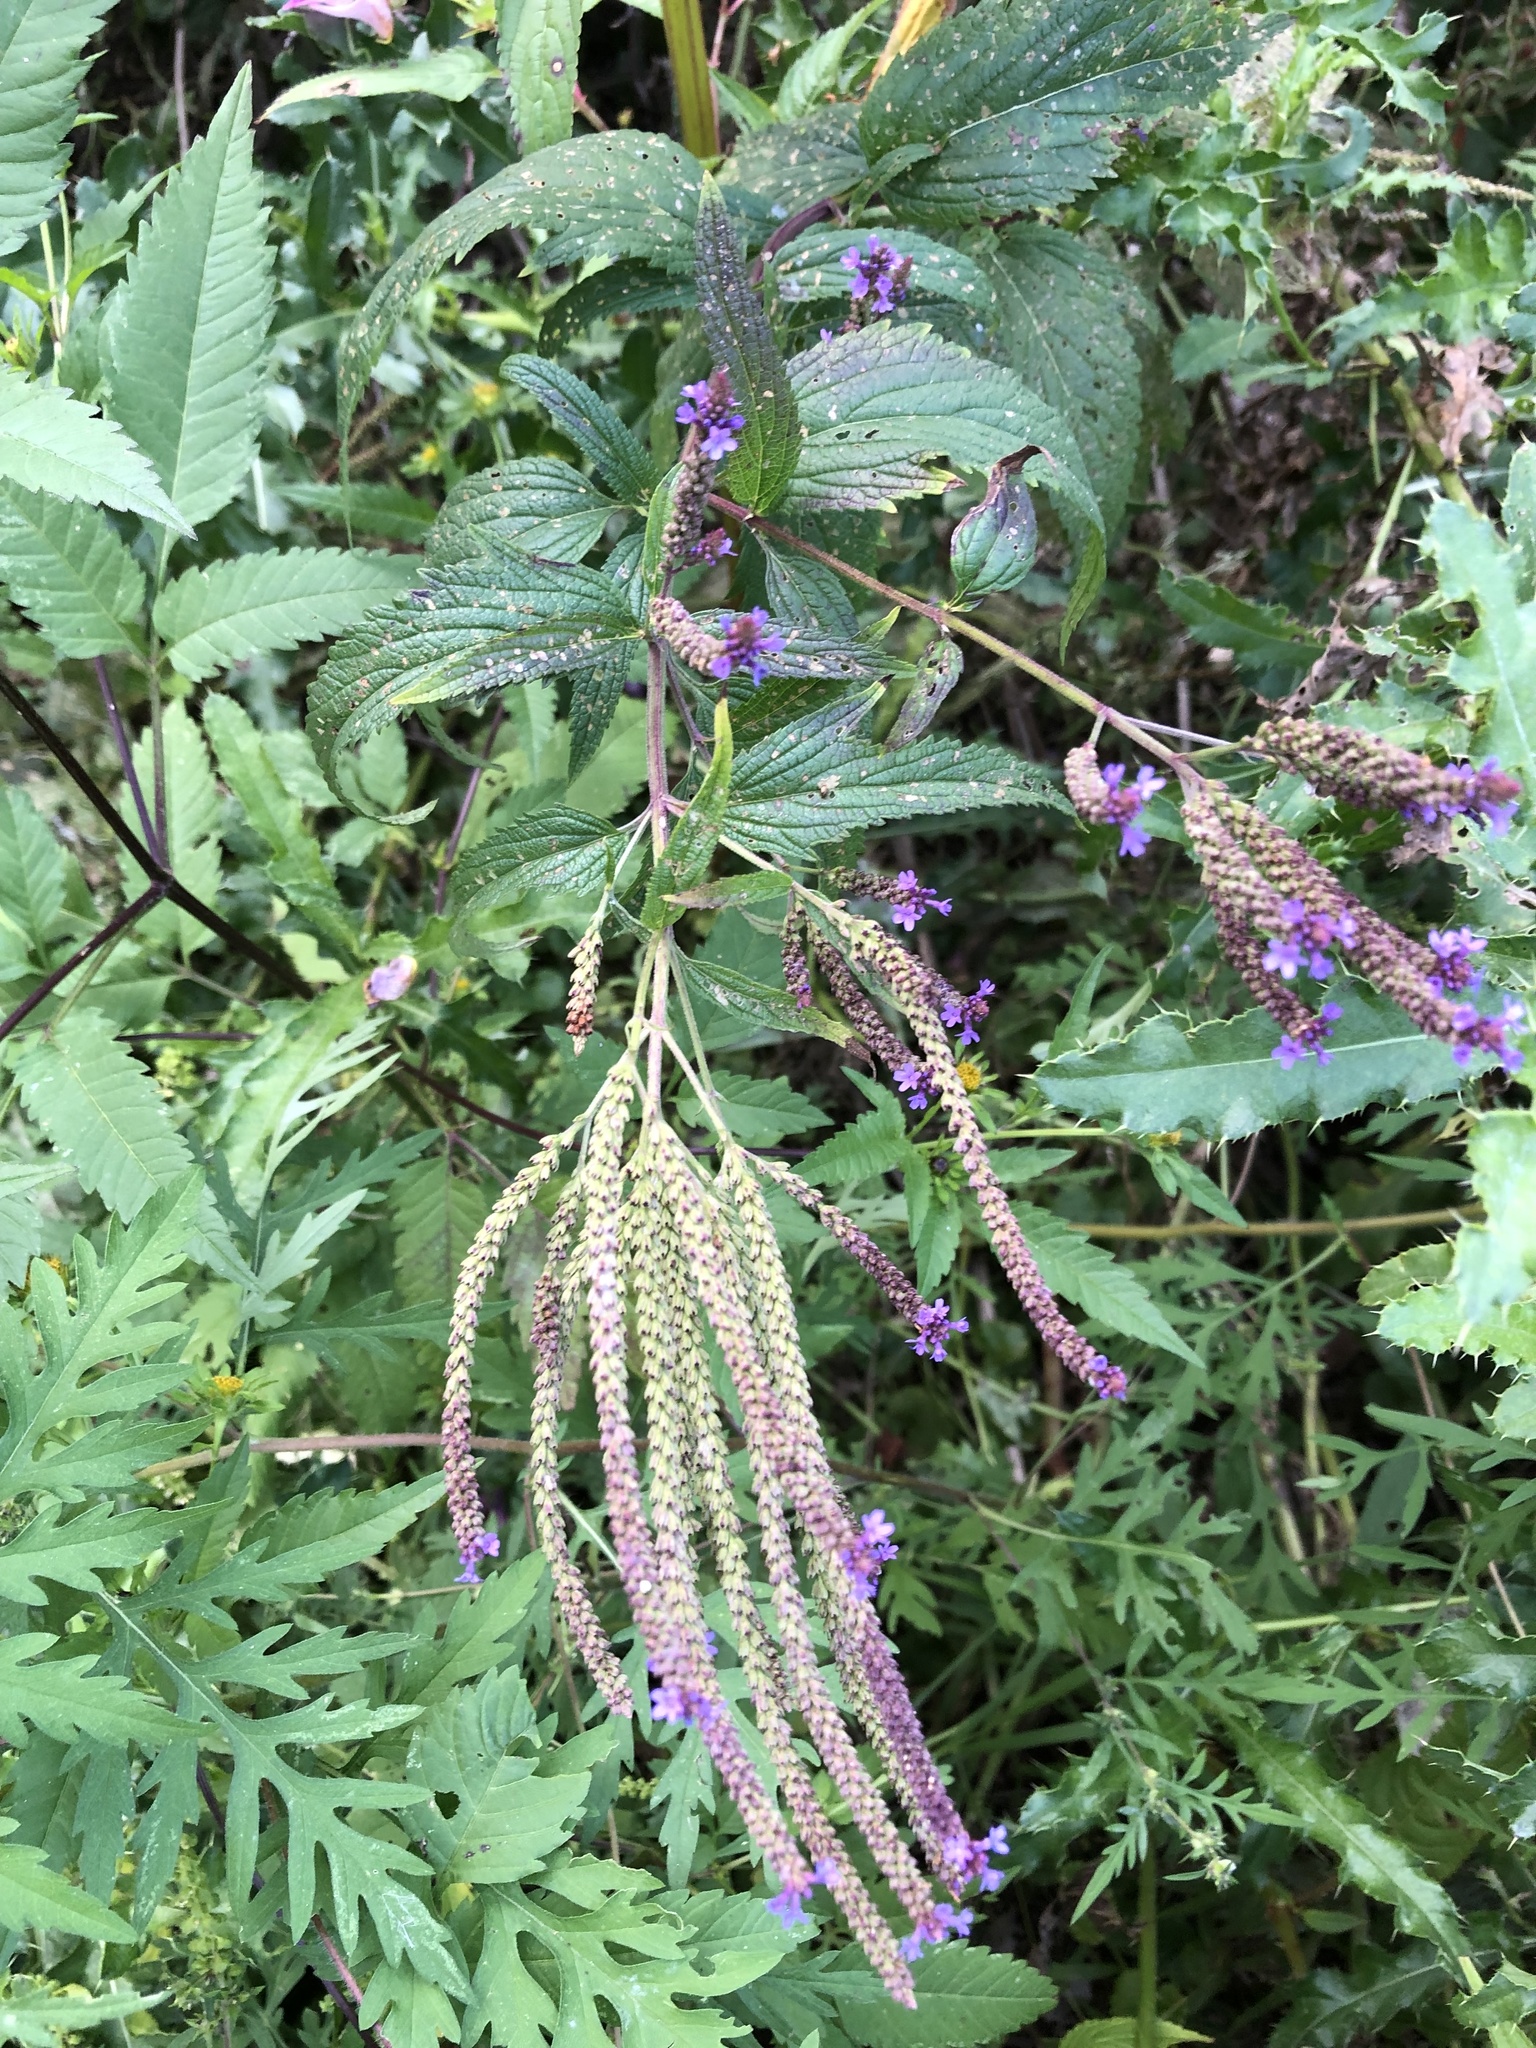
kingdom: Plantae
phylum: Tracheophyta
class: Magnoliopsida
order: Lamiales
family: Verbenaceae
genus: Verbena
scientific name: Verbena hastata
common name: American blue vervain
